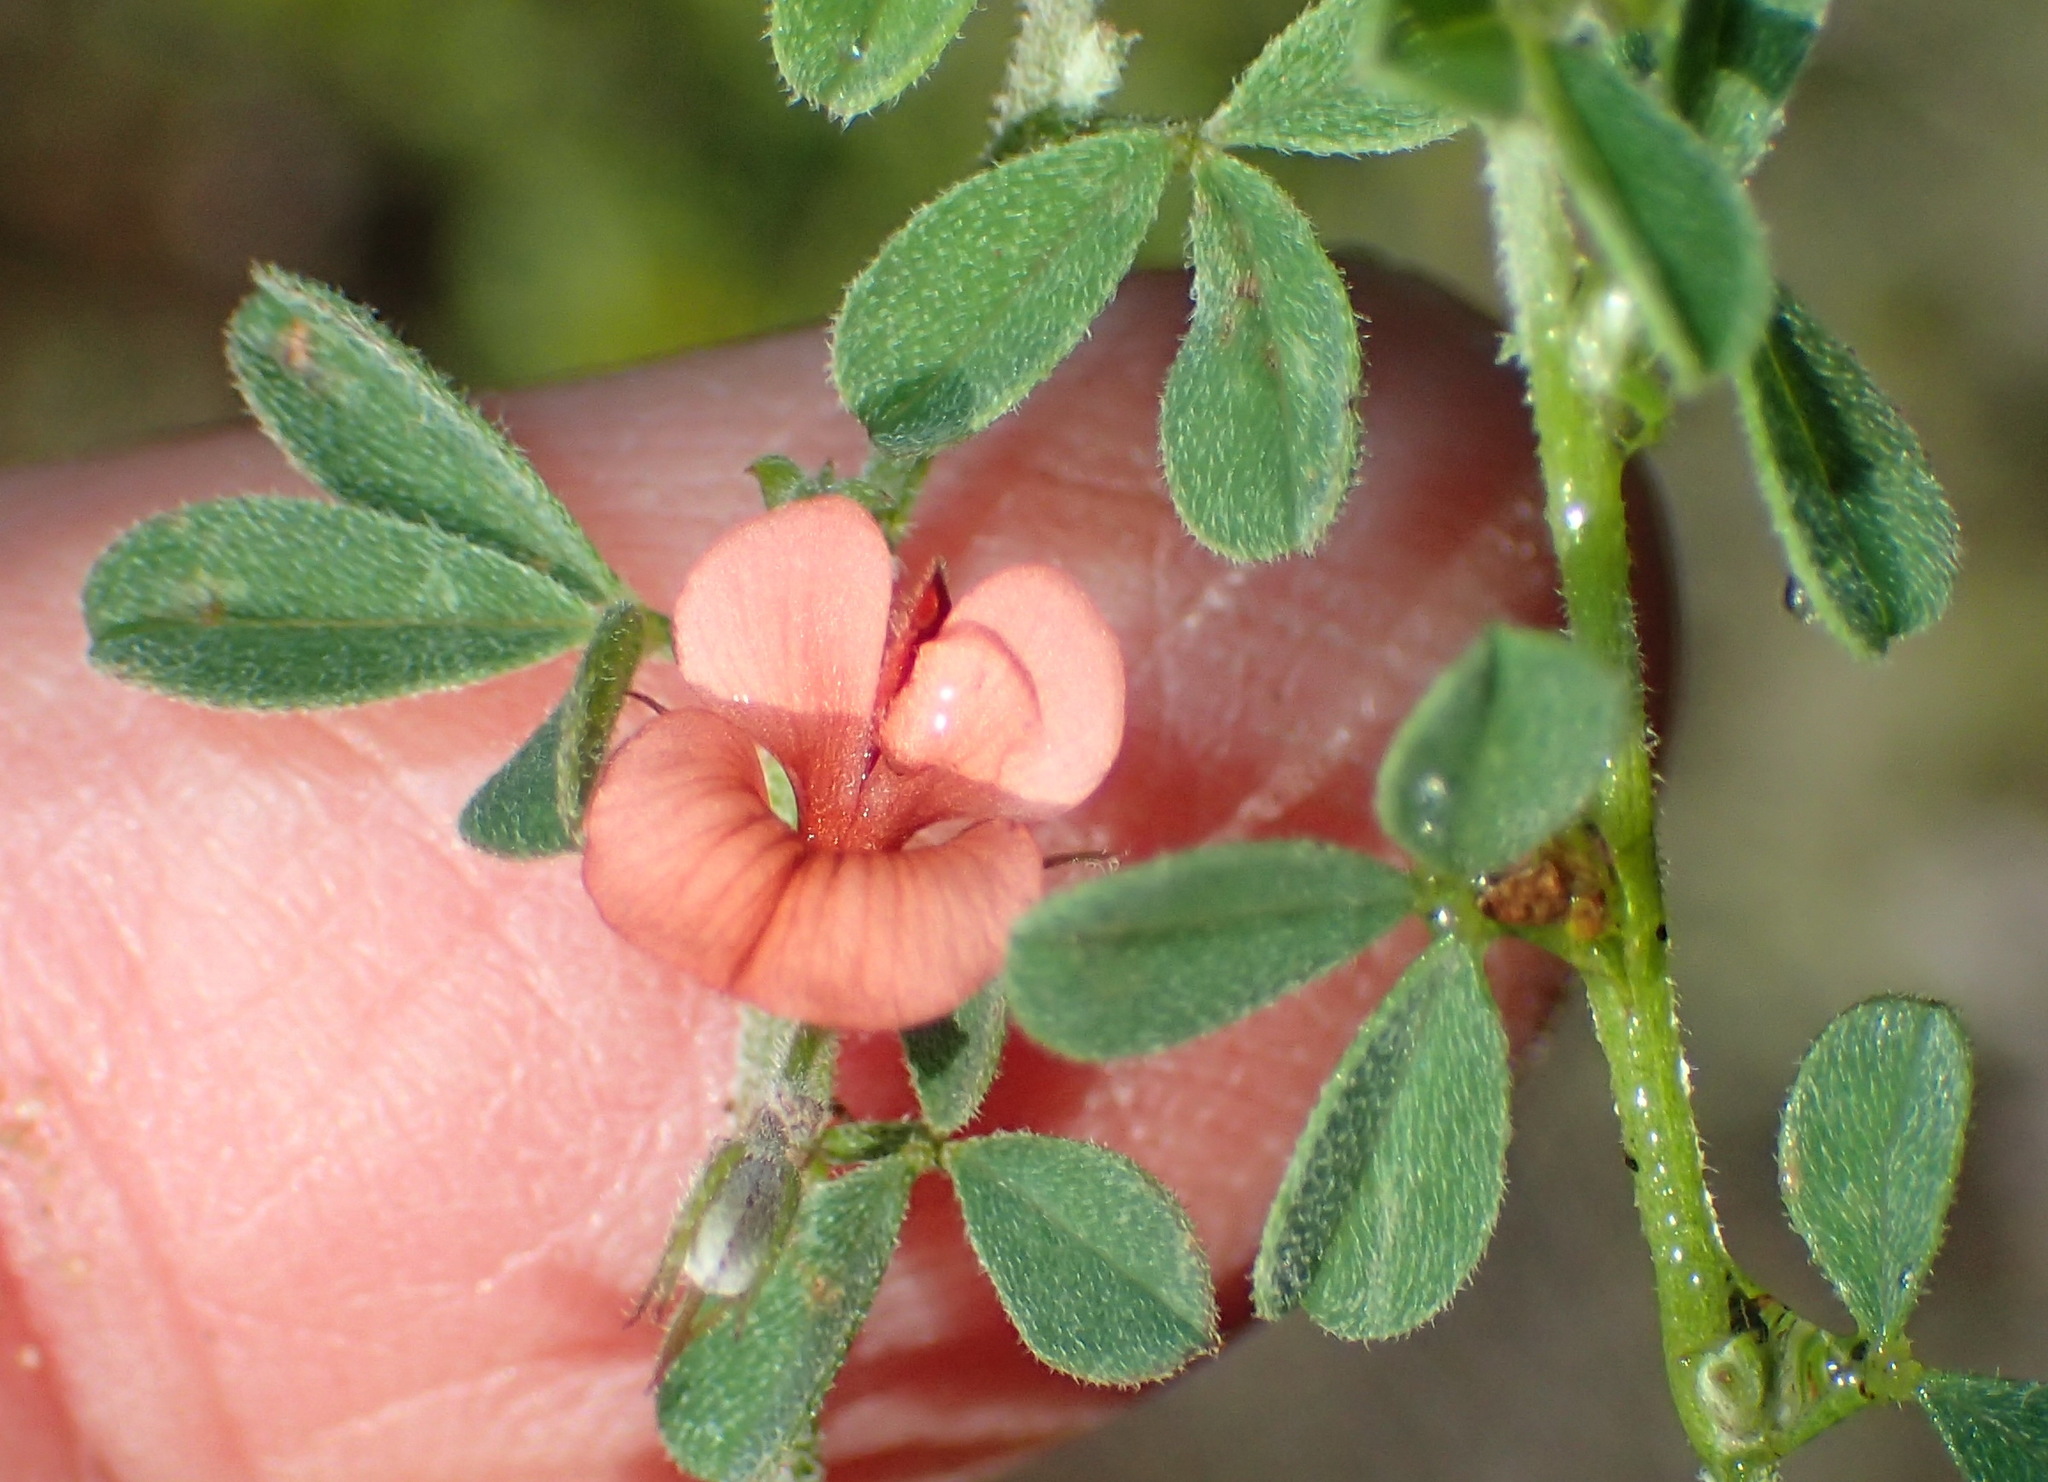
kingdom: Plantae
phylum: Tracheophyta
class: Magnoliopsida
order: Fabales
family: Fabaceae
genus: Indigofera
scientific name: Indigofera priorii
